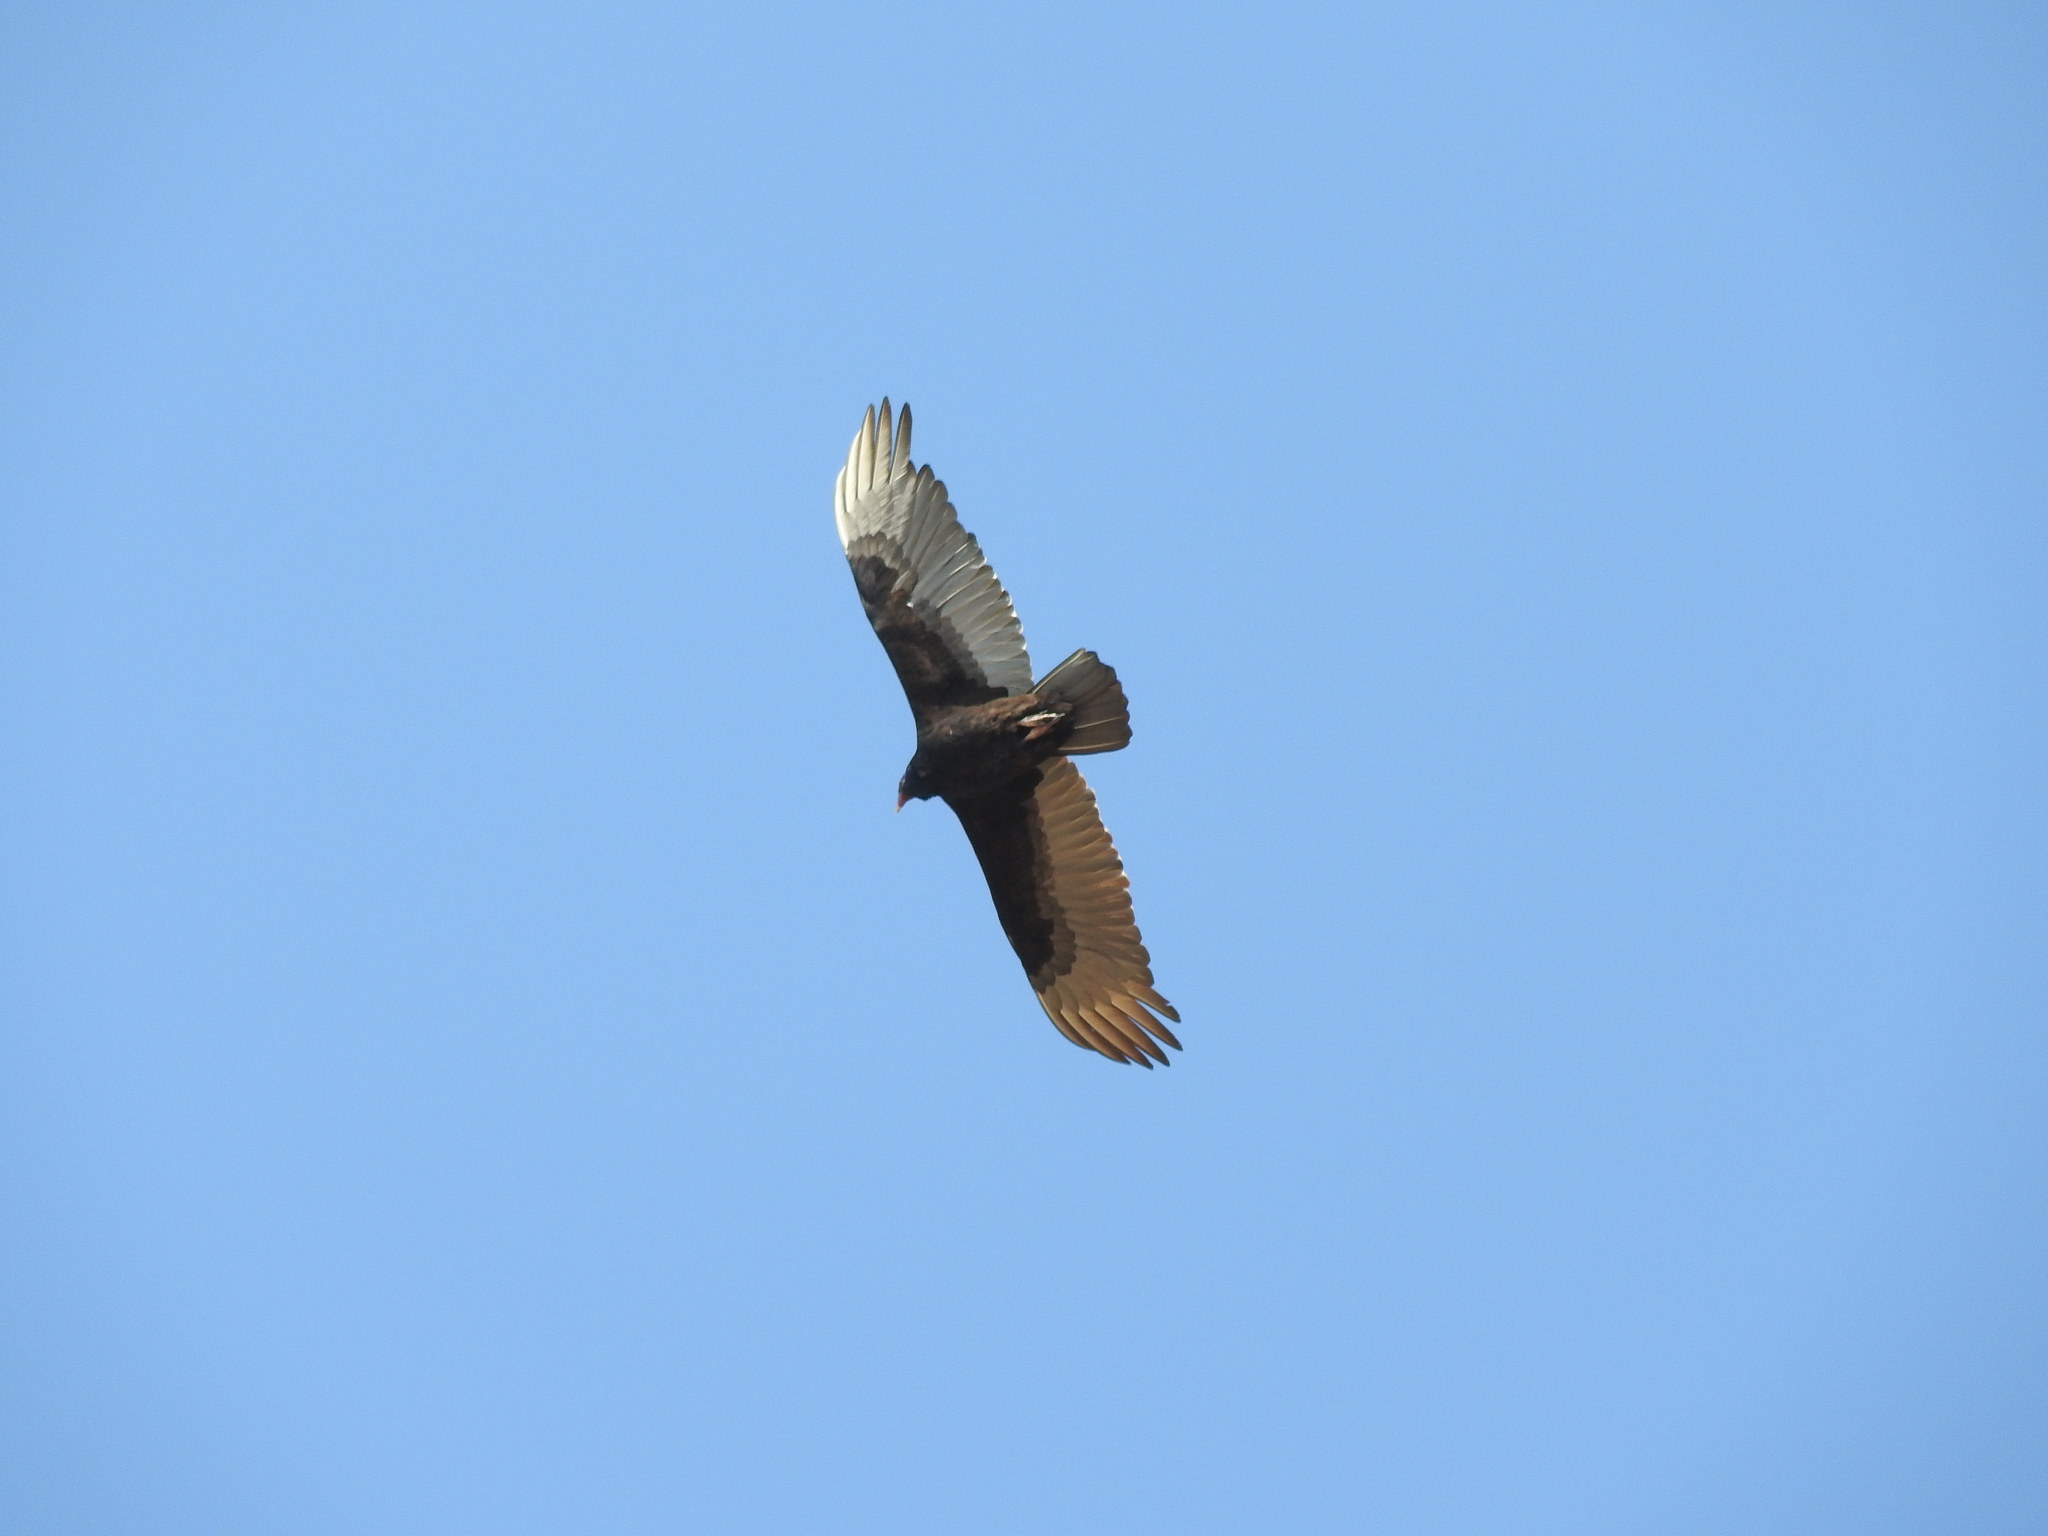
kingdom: Animalia
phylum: Chordata
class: Aves
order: Accipitriformes
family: Cathartidae
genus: Cathartes
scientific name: Cathartes aura
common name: Turkey vulture
